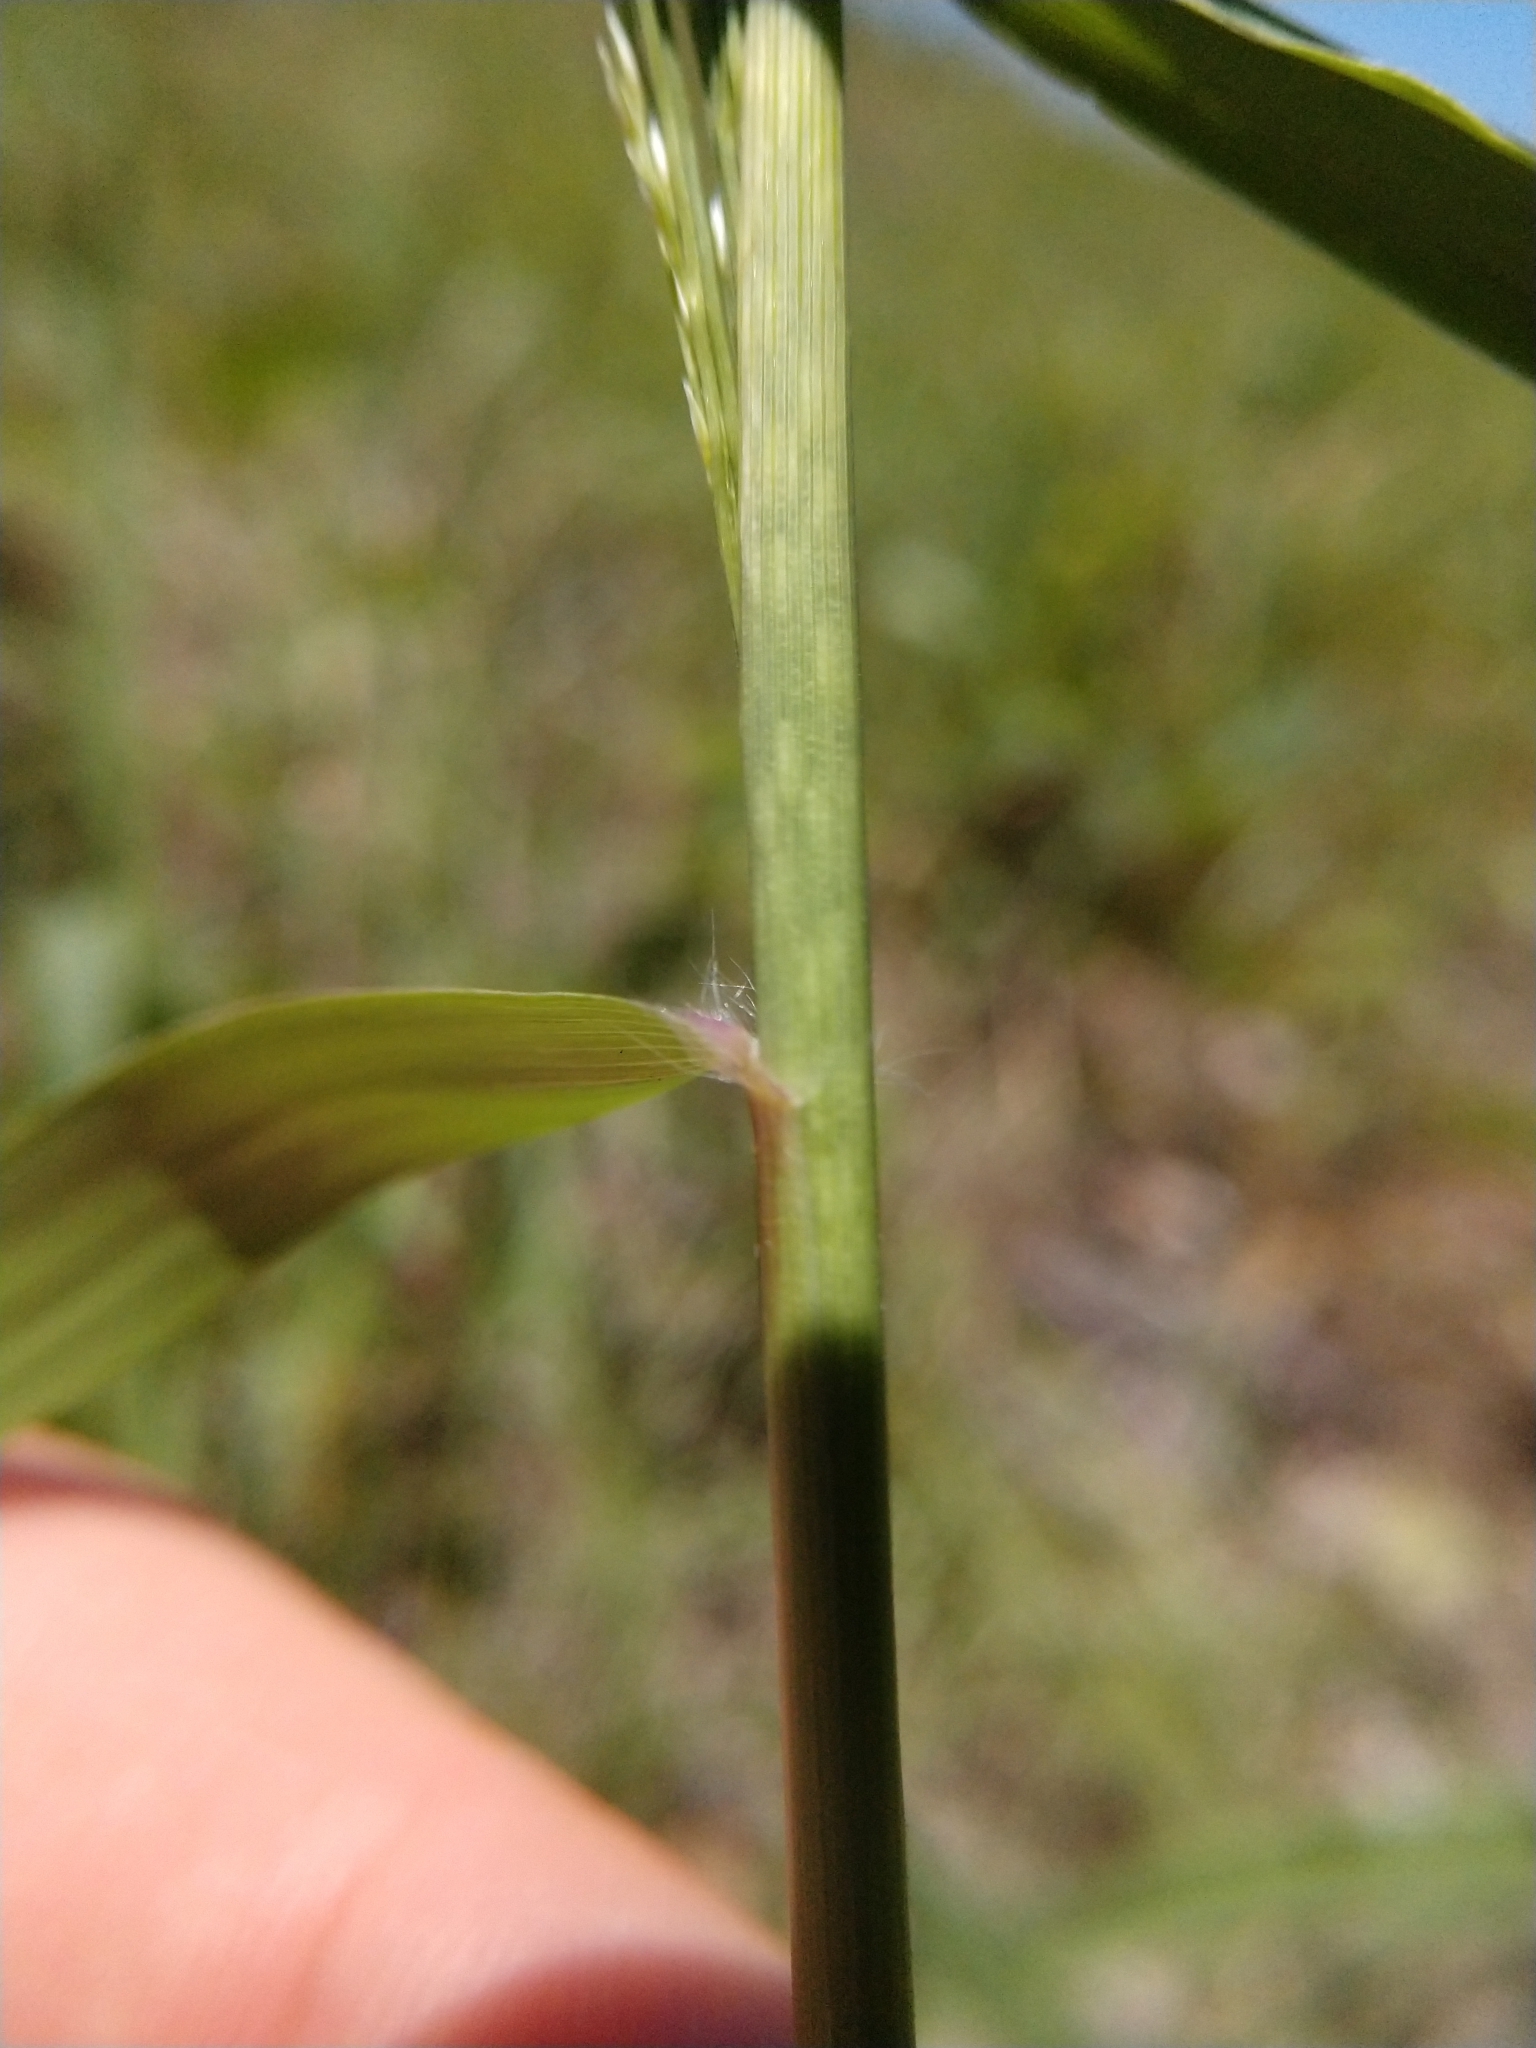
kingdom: Plantae
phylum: Tracheophyta
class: Liliopsida
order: Poales
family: Poaceae
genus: Eragrostis
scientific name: Eragrostis curtipedicellata
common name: Gummy love grass
